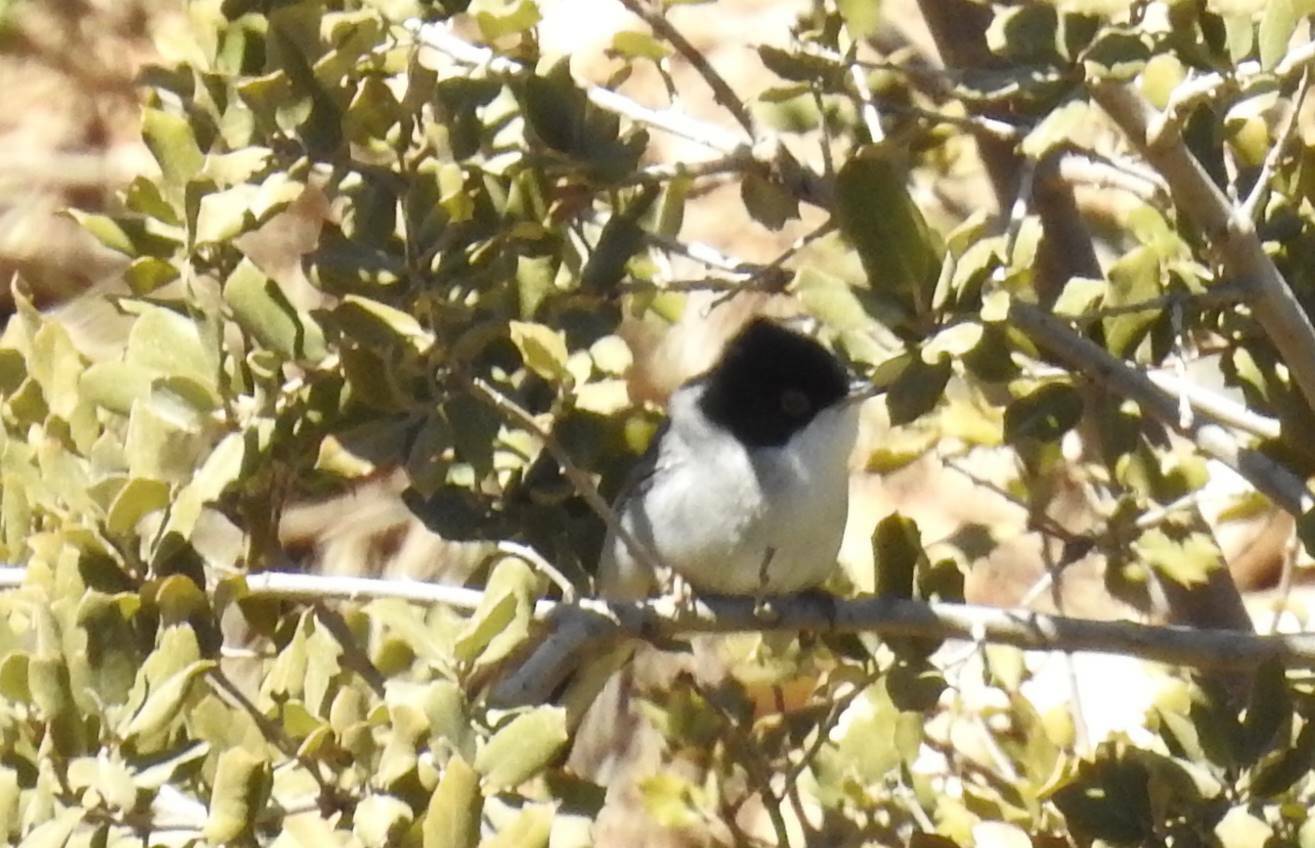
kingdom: Animalia
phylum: Chordata
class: Aves
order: Passeriformes
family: Sylviidae
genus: Curruca
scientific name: Curruca melanocephala
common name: Sardinian warbler
